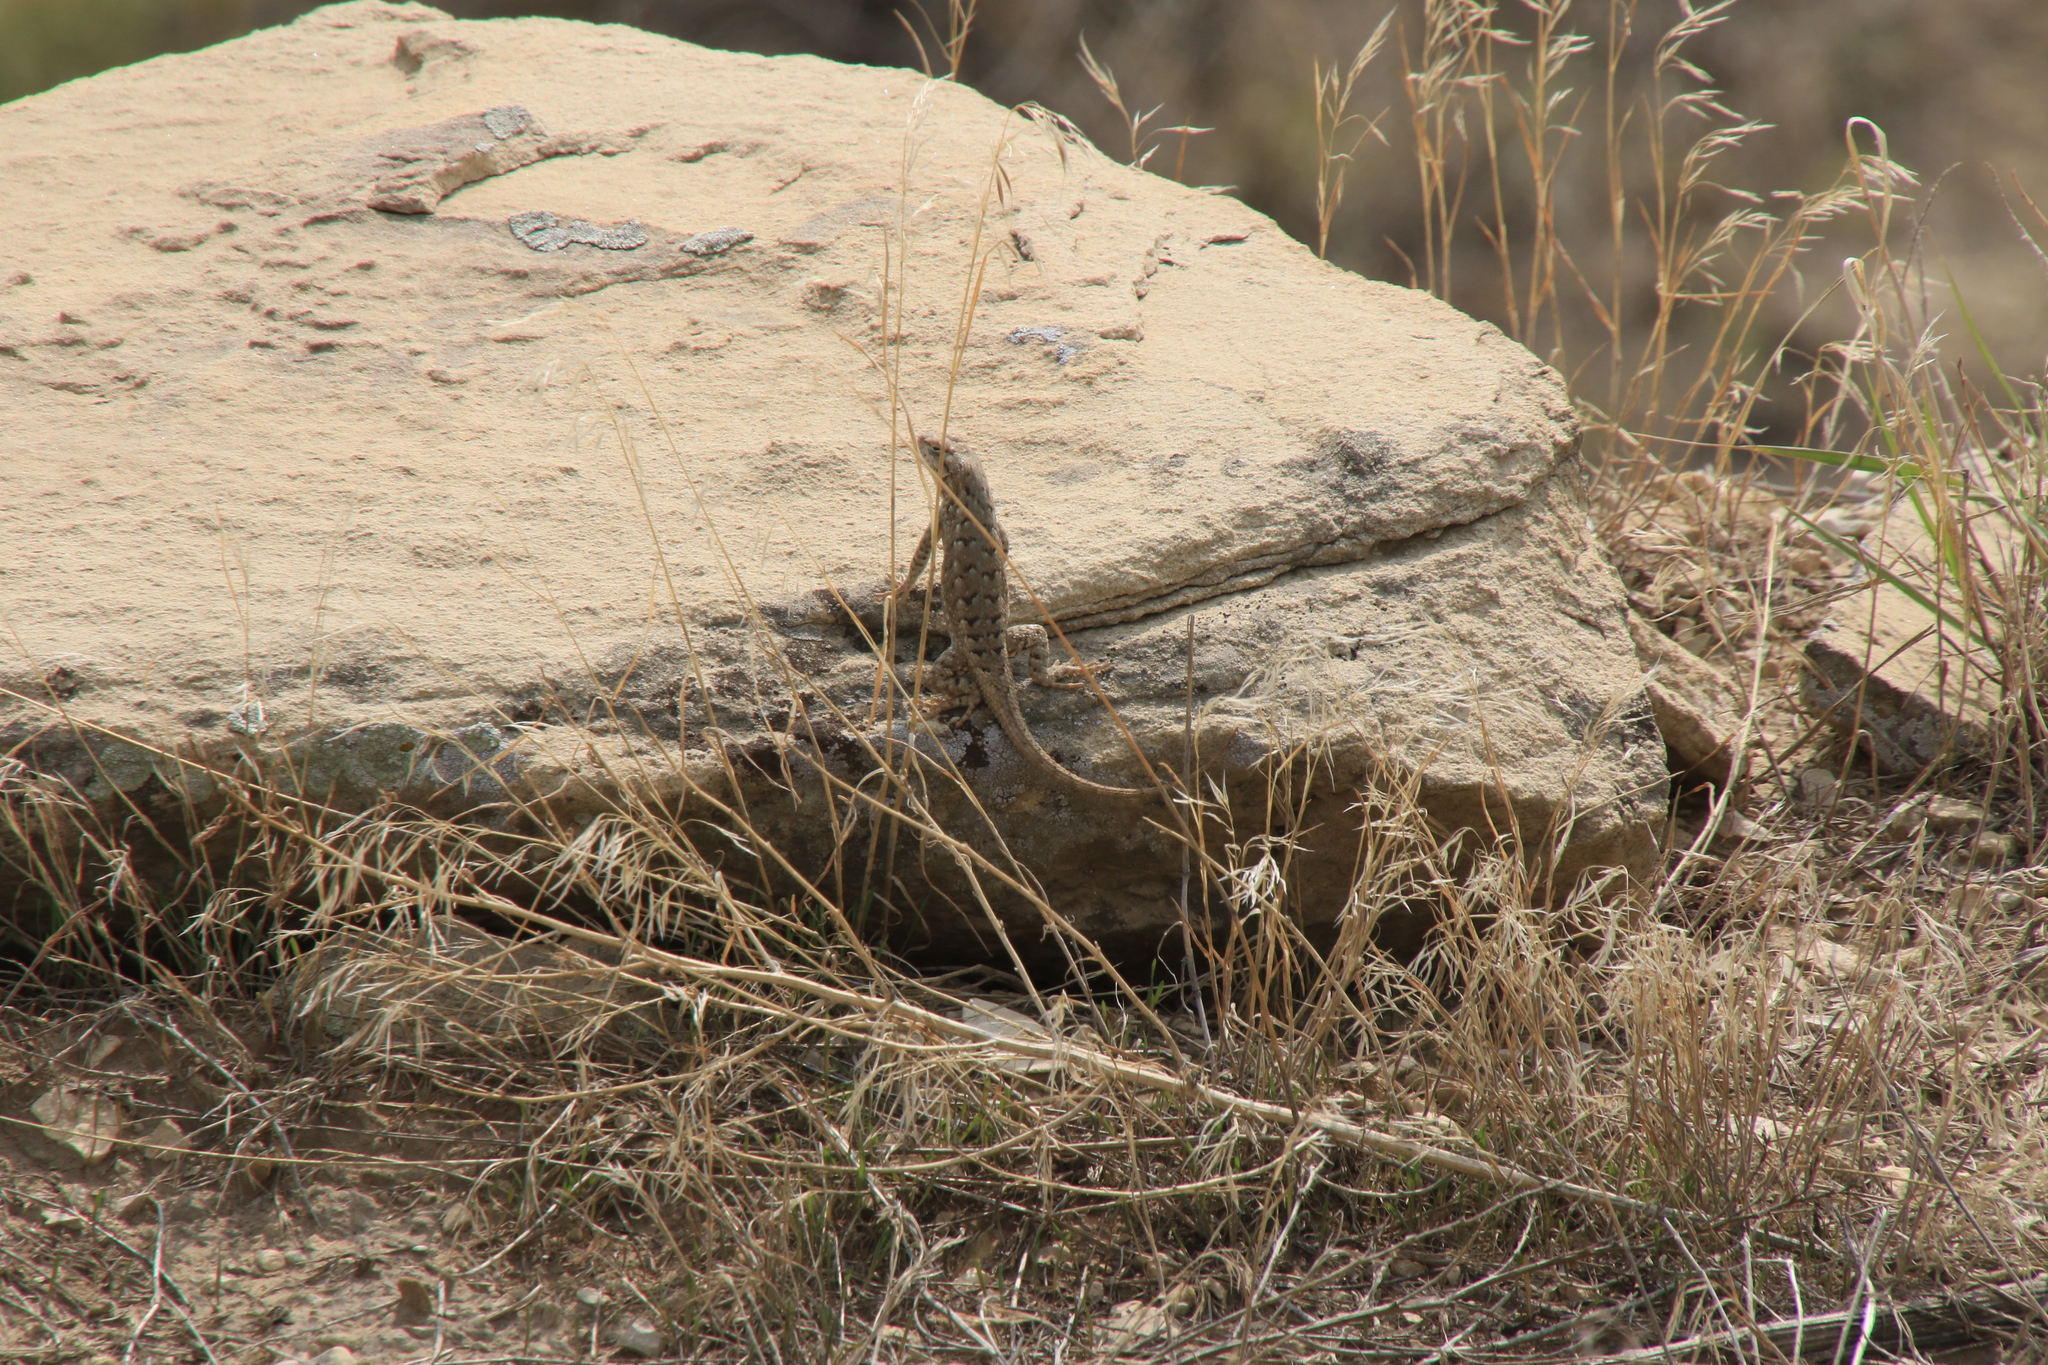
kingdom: Animalia
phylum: Chordata
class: Squamata
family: Phrynosomatidae
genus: Sceloporus
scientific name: Sceloporus consobrinus
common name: Southern prairie lizard
